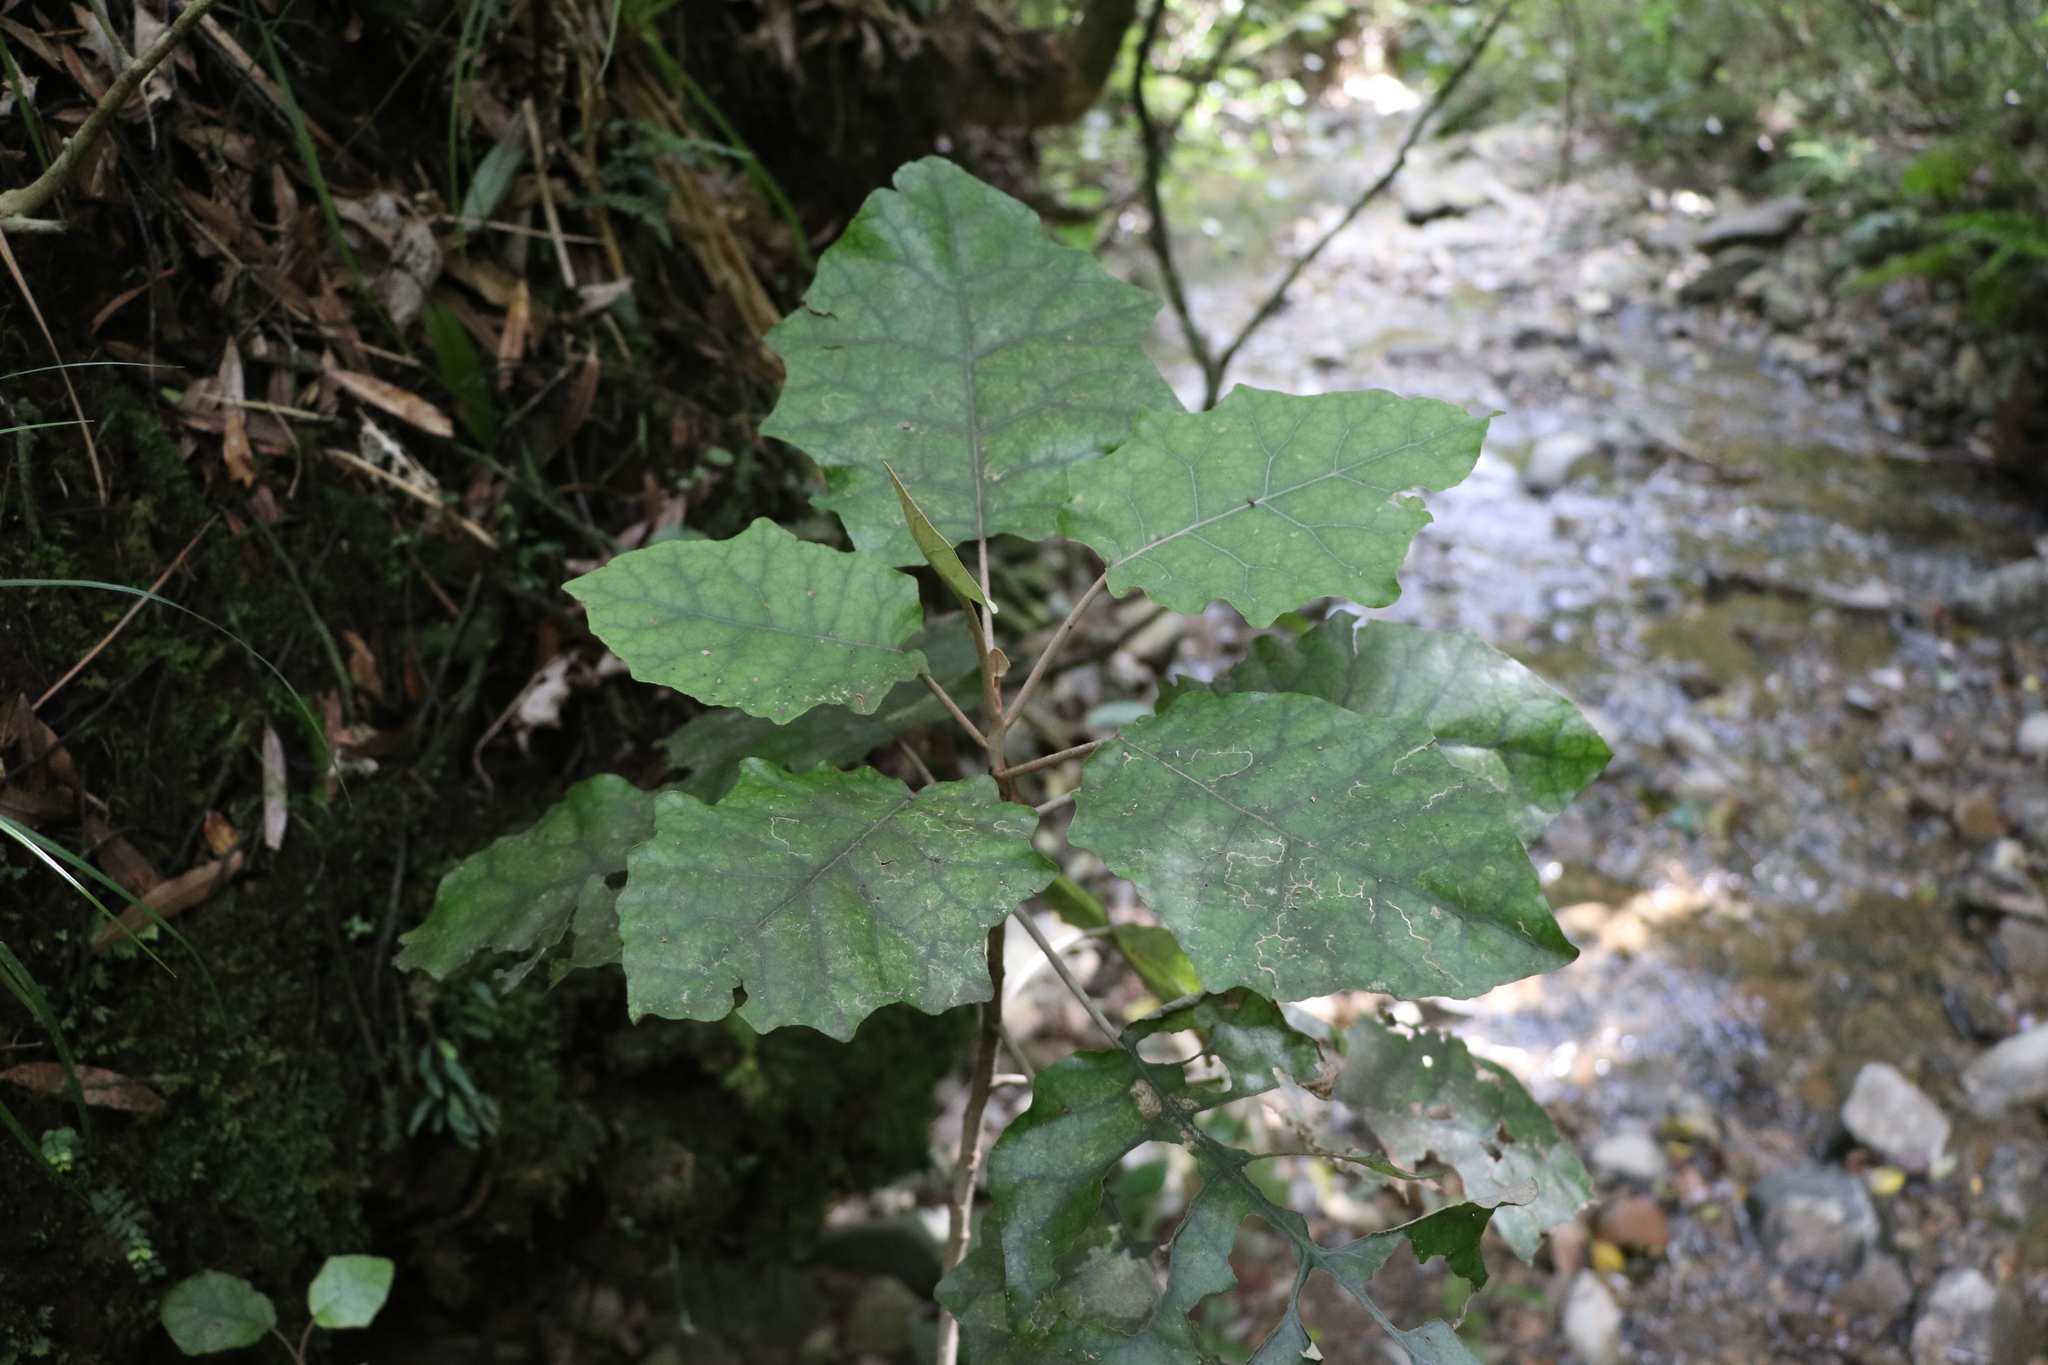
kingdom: Plantae
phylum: Tracheophyta
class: Magnoliopsida
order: Asterales
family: Asteraceae
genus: Brachyglottis
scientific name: Brachyglottis repanda
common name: Hedge ragwort
